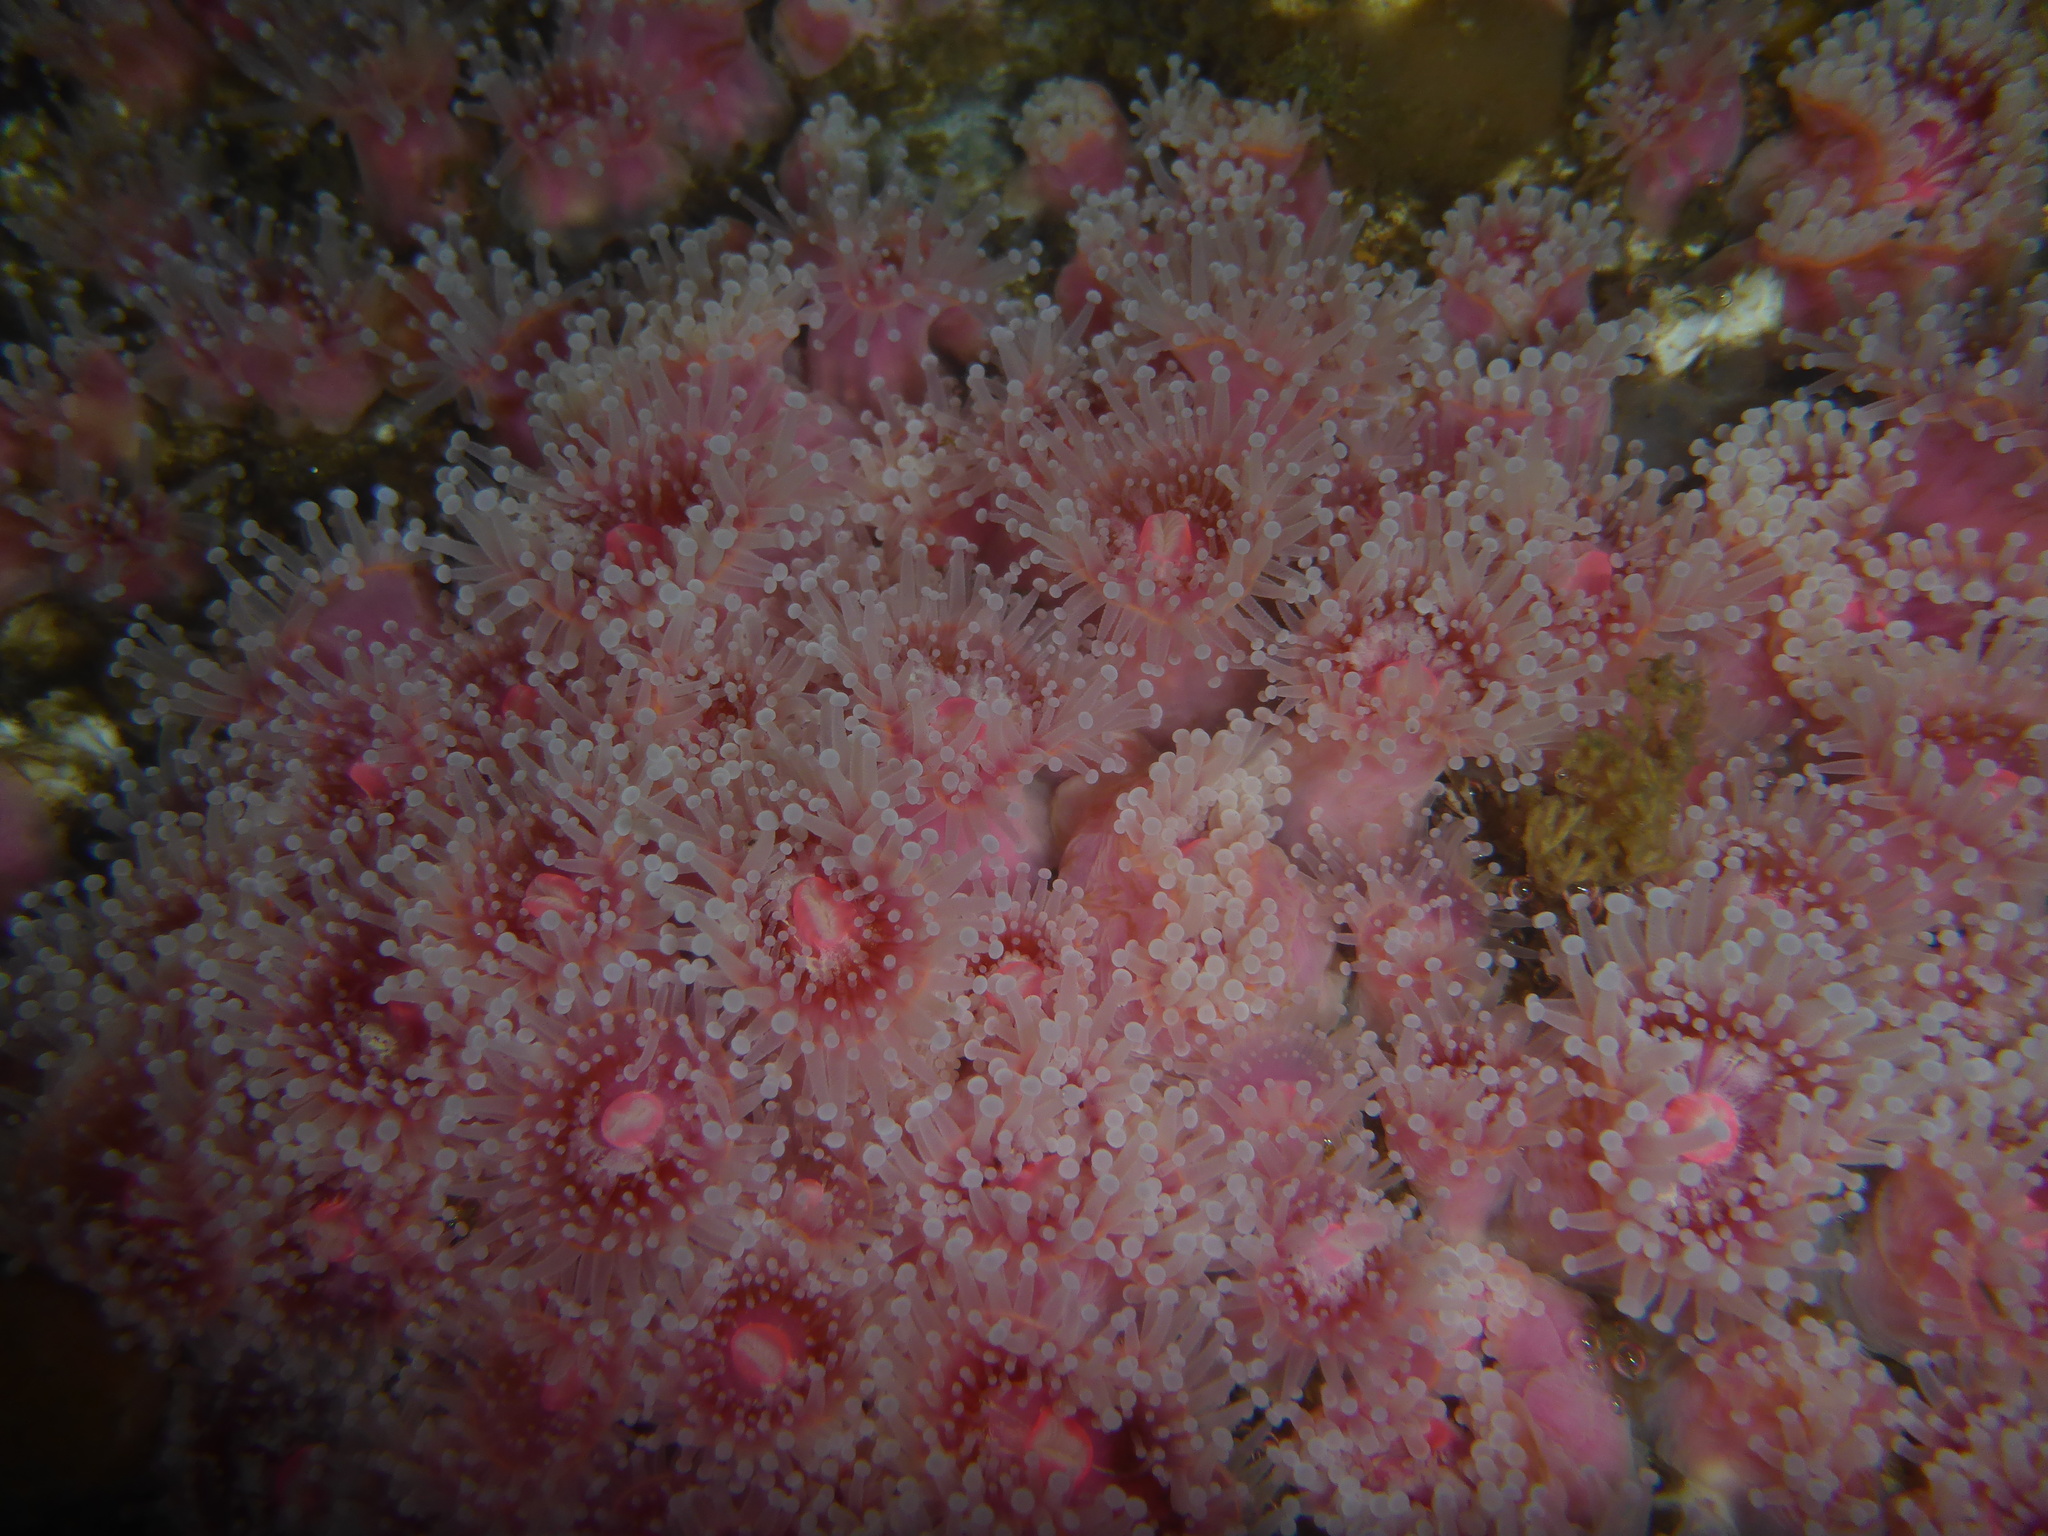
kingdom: Animalia
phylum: Cnidaria
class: Anthozoa
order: Corallimorpharia
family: Corallimorphidae
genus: Corynactis
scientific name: Corynactis californica
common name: Strawberry corallimorpharian
